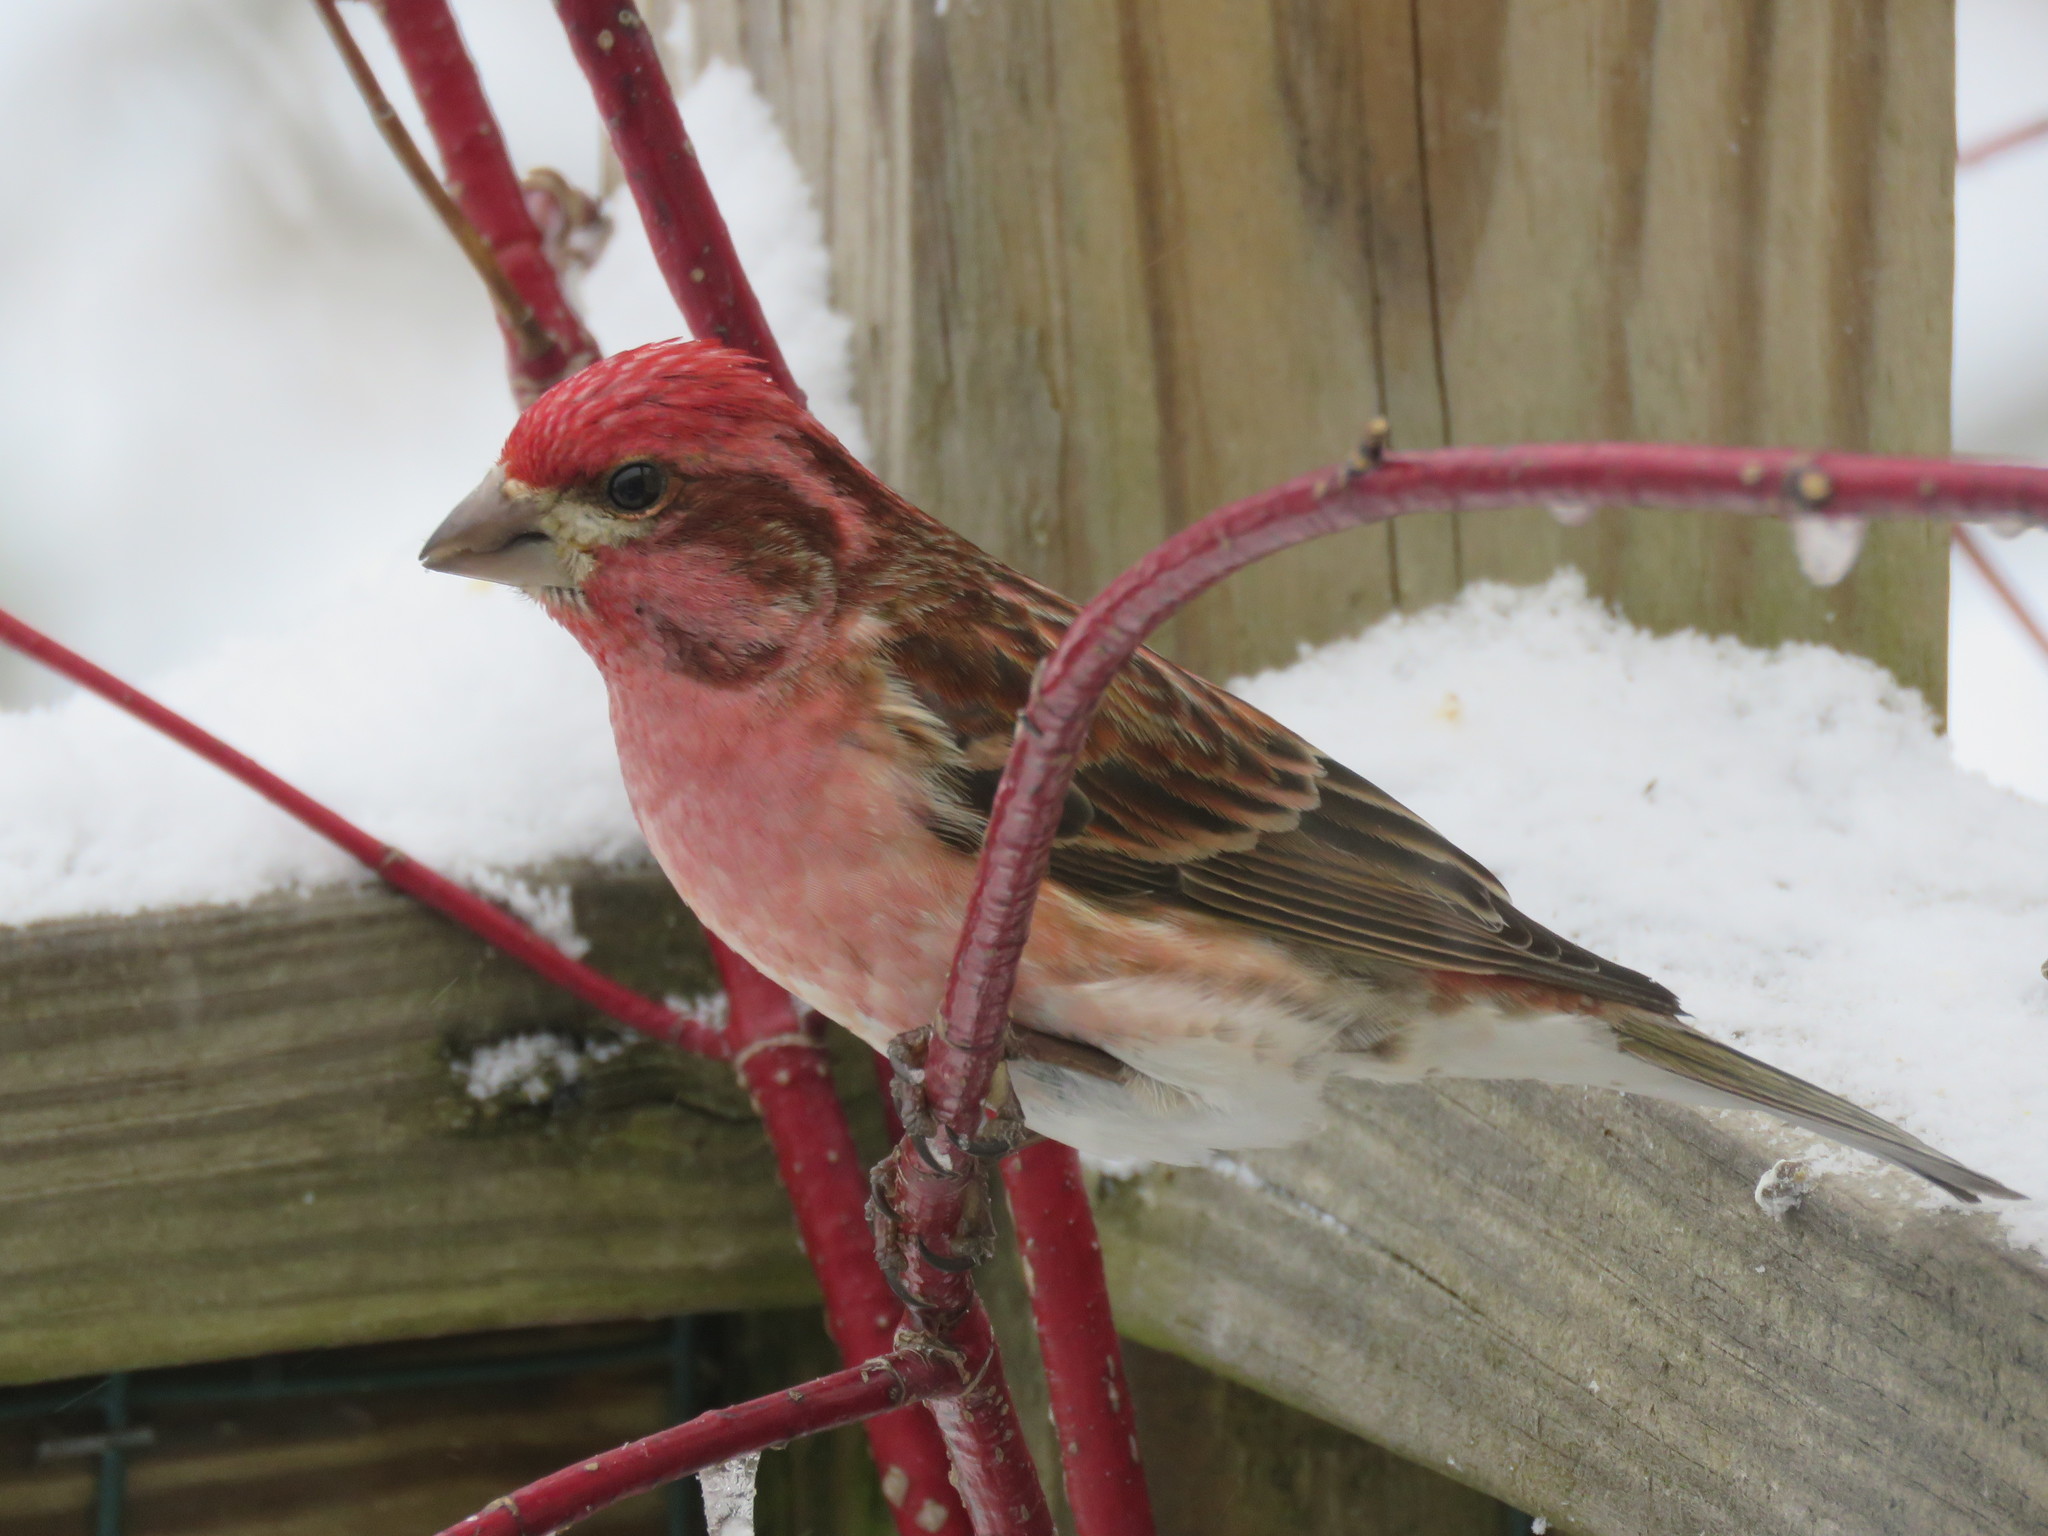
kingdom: Animalia
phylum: Chordata
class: Aves
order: Passeriformes
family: Fringillidae
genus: Haemorhous
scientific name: Haemorhous purpureus
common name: Purple finch
